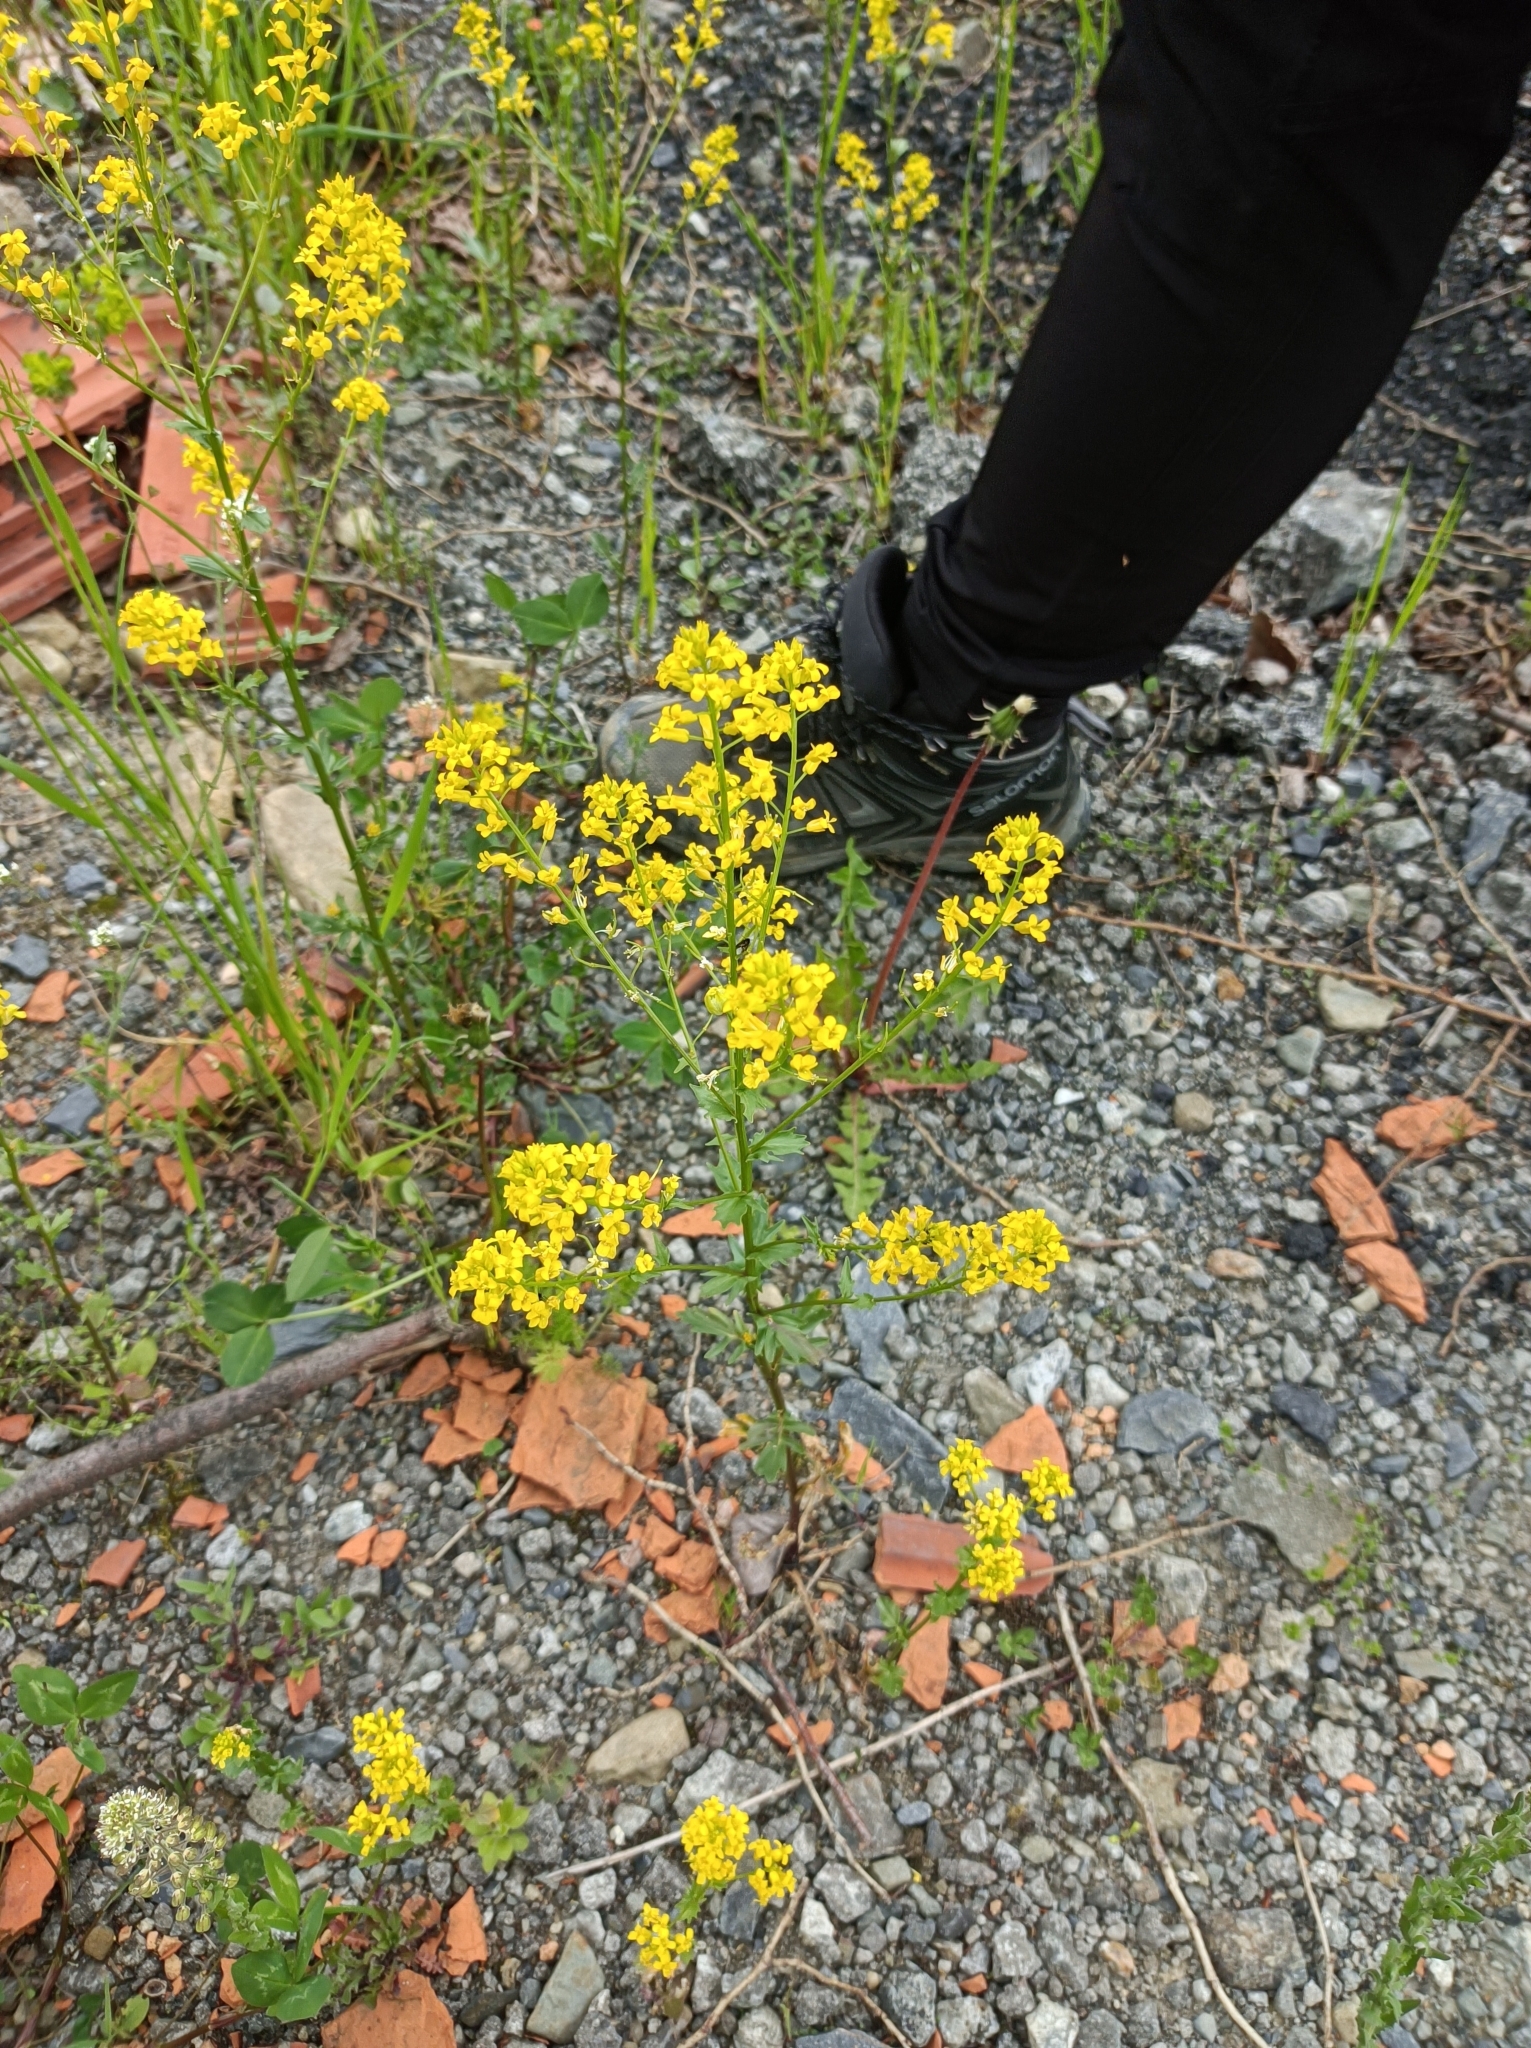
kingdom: Plantae
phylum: Tracheophyta
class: Magnoliopsida
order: Brassicales
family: Brassicaceae
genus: Barbarea
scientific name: Barbarea vulgaris
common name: Cressy-greens
